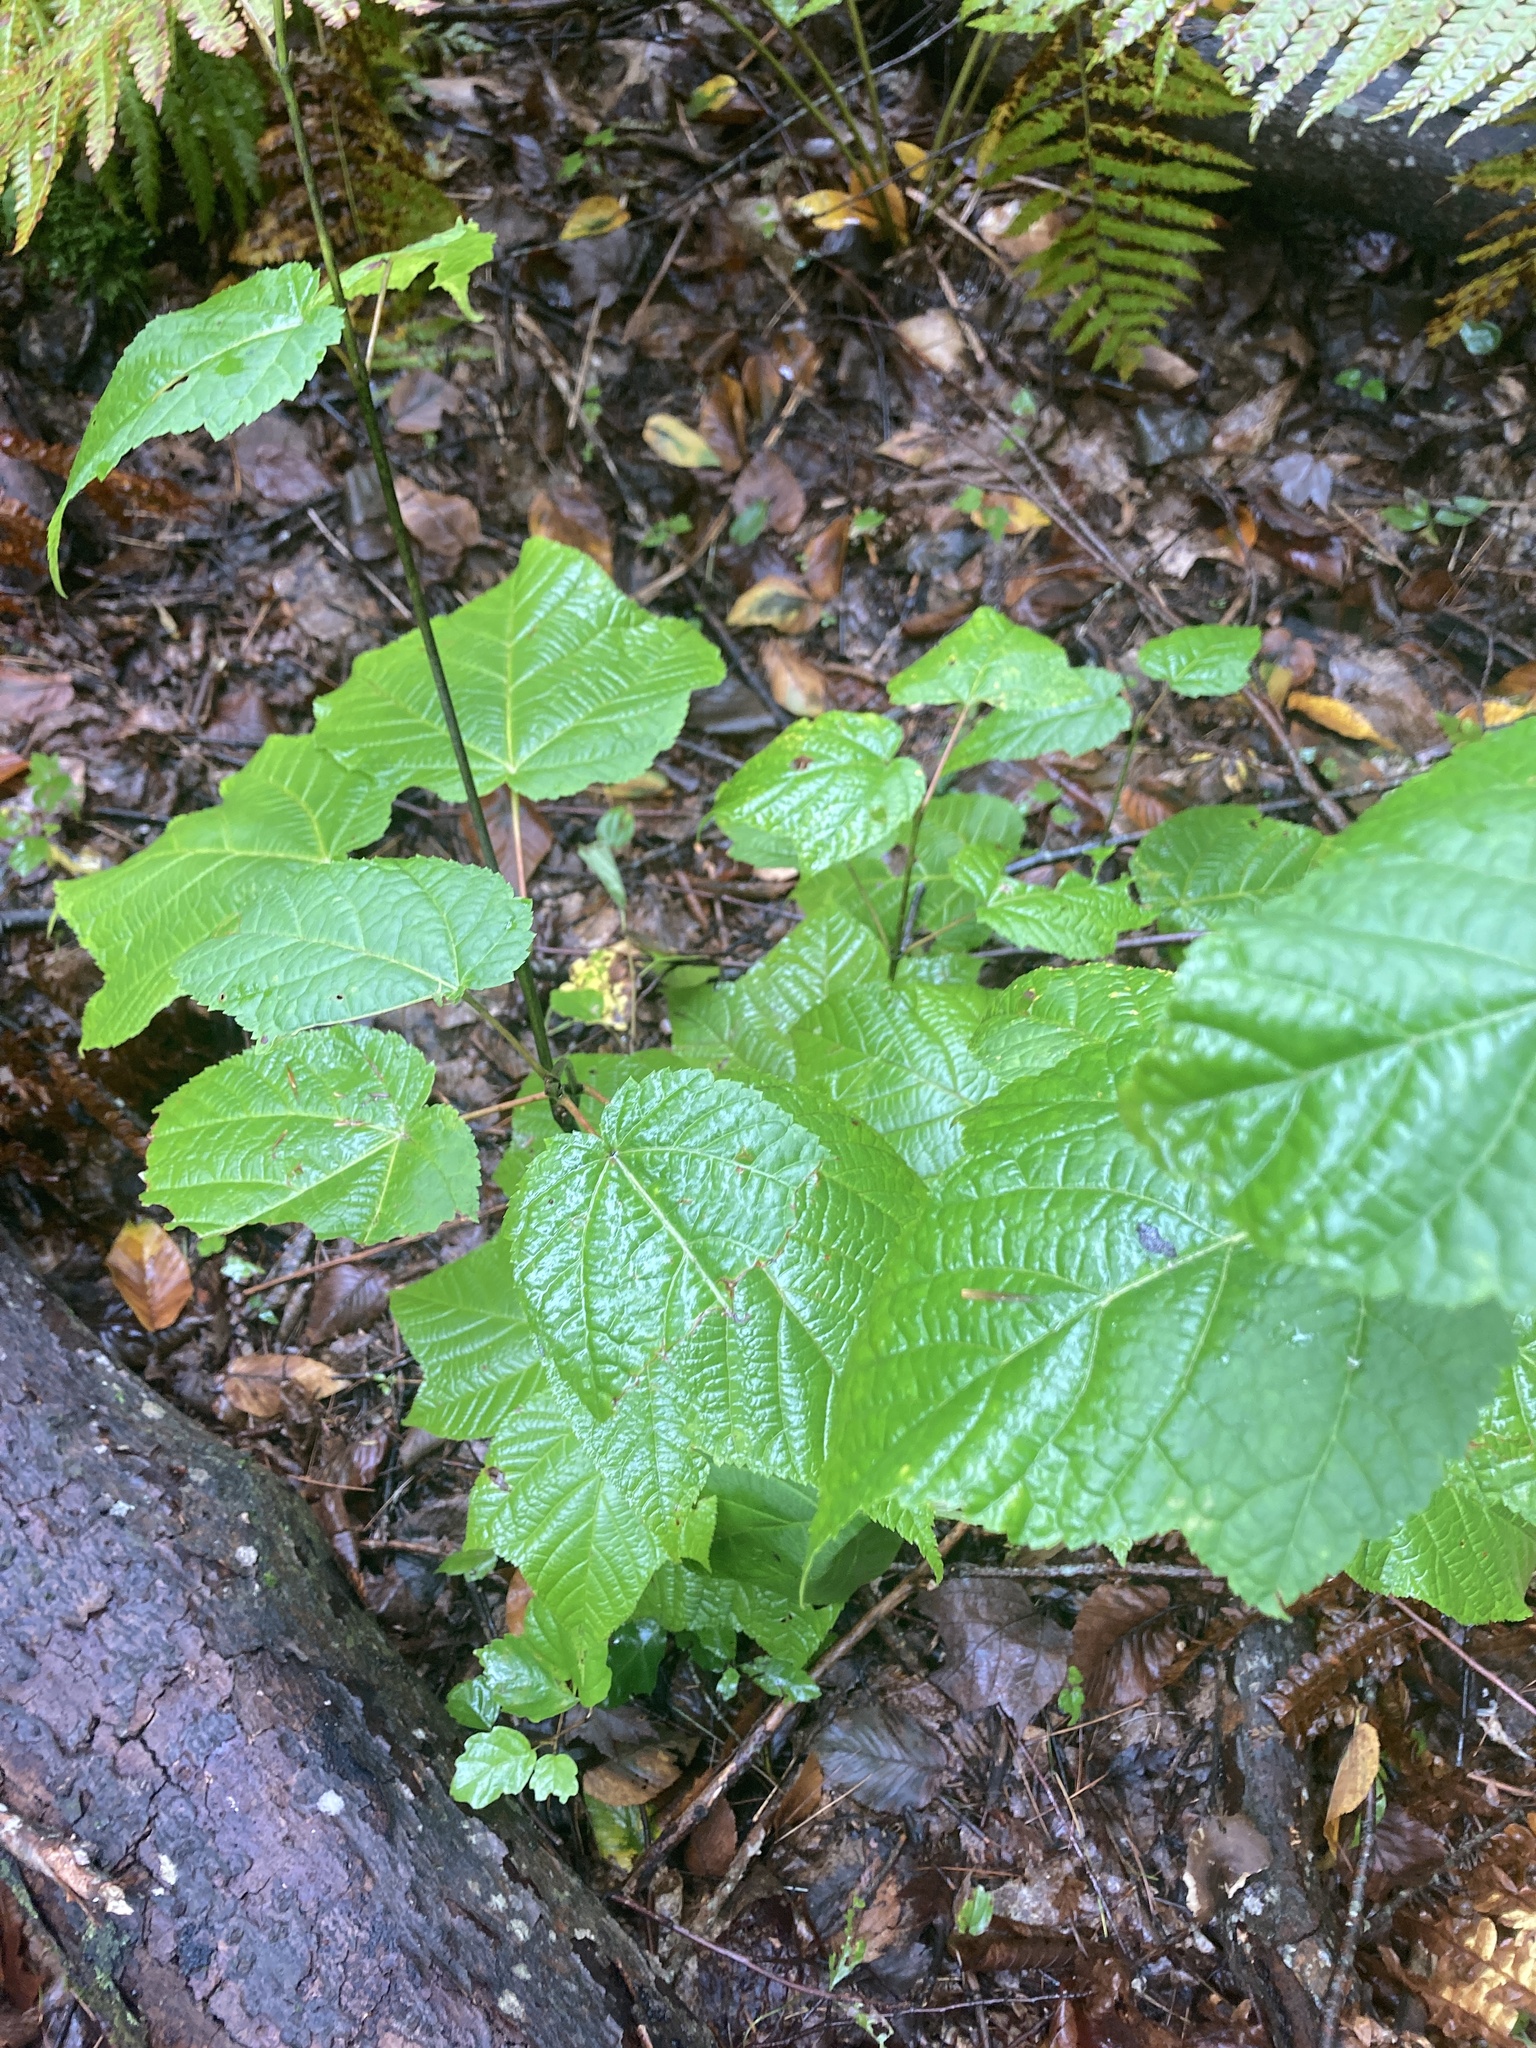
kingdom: Plantae
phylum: Tracheophyta
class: Magnoliopsida
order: Sapindales
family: Sapindaceae
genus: Acer
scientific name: Acer pensylvanicum
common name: Moosewood
